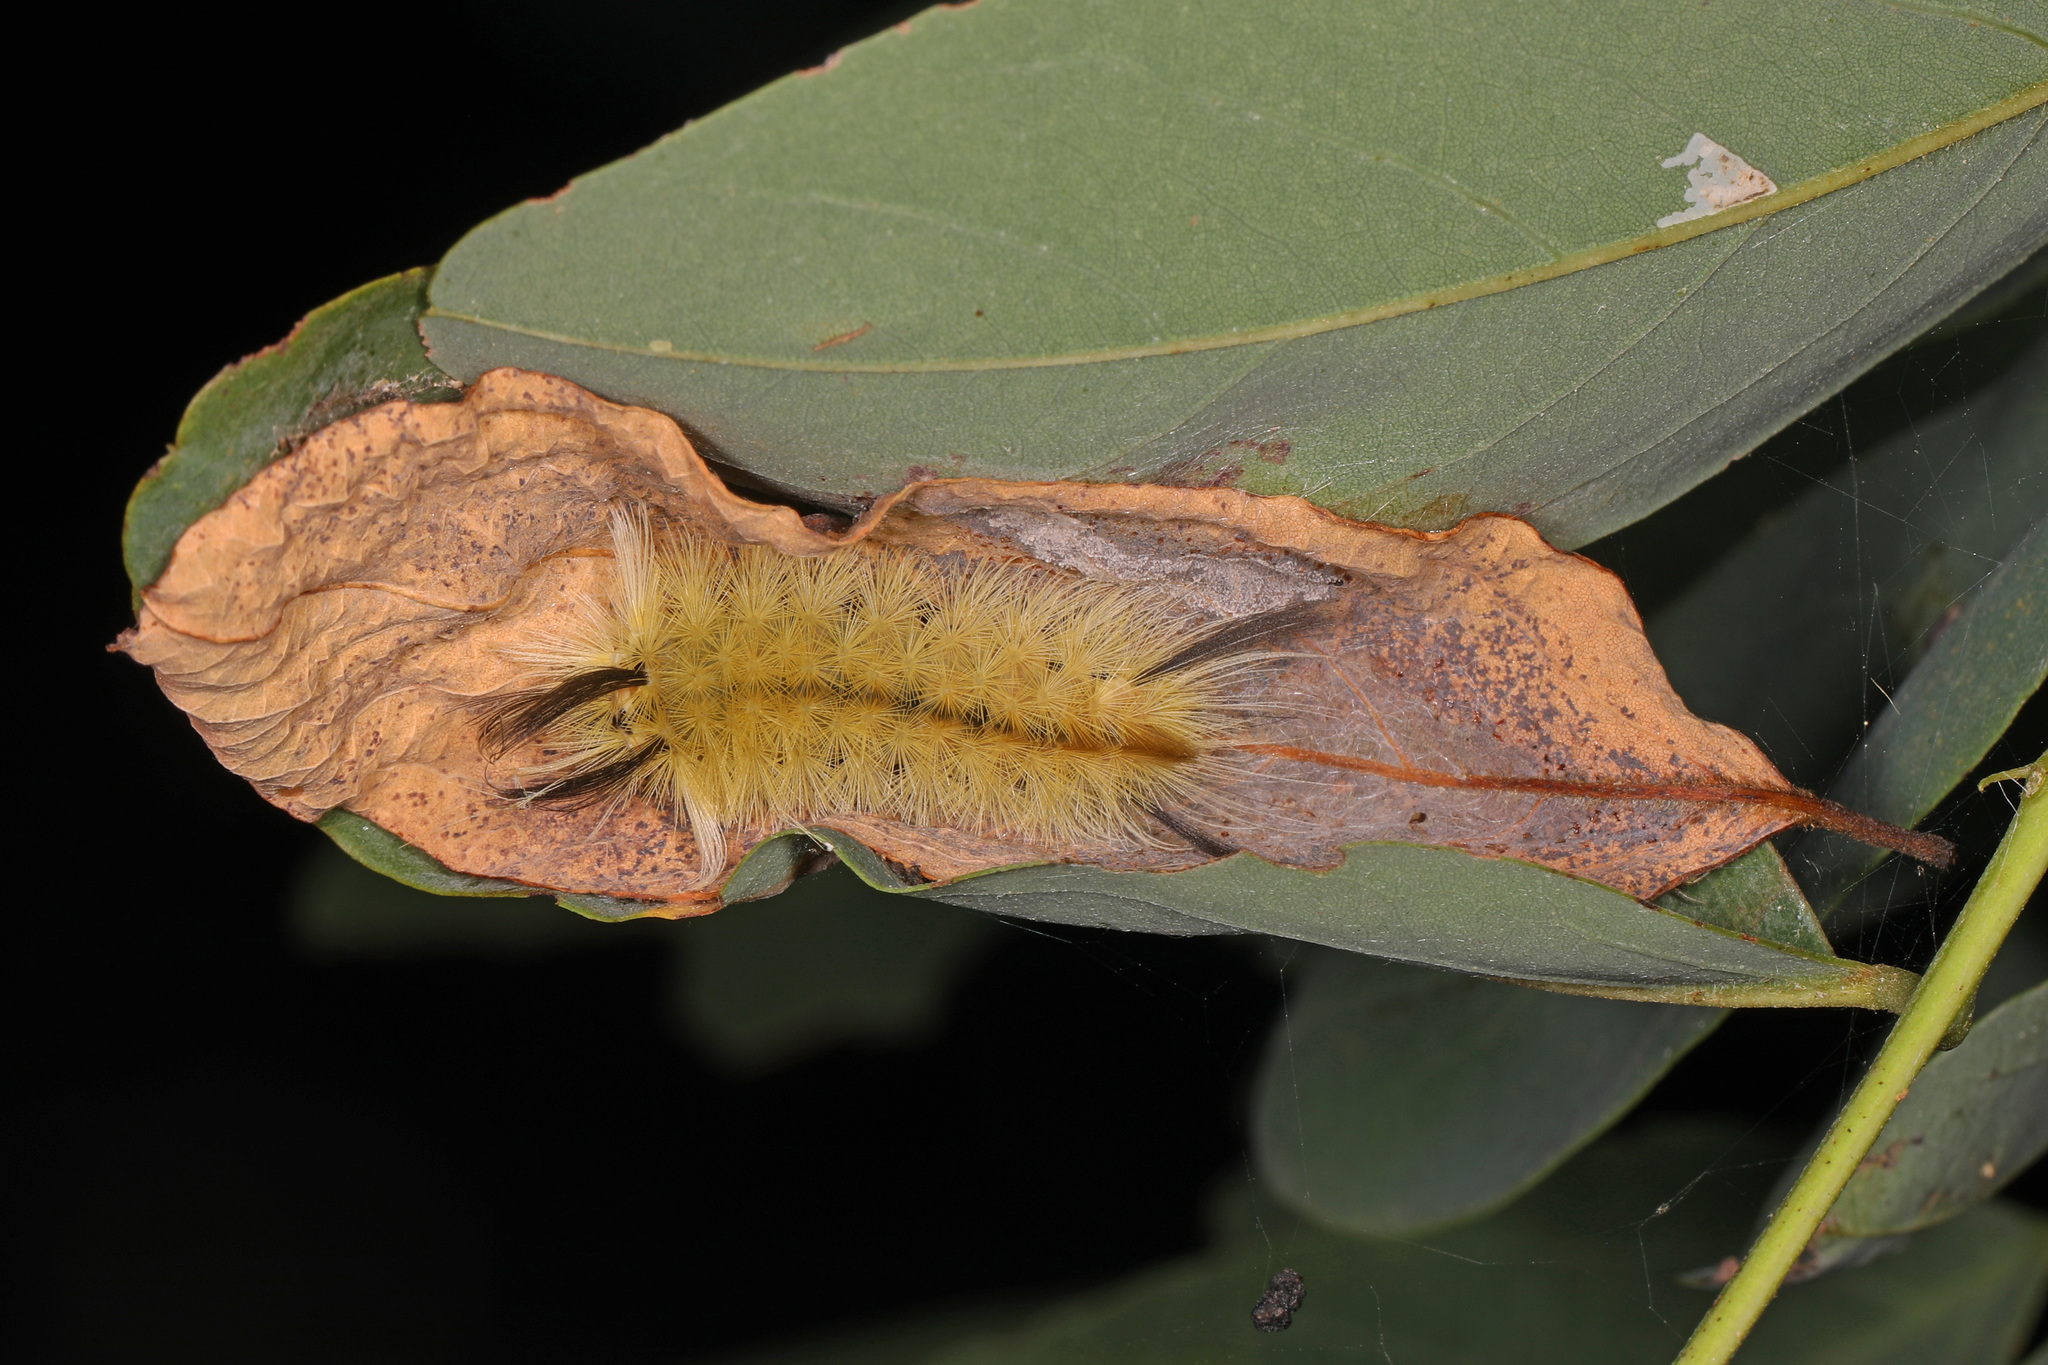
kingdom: Animalia
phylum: Arthropoda
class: Insecta
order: Lepidoptera
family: Erebidae
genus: Halysidota
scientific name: Halysidota tessellaris
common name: Banded tussock moth
